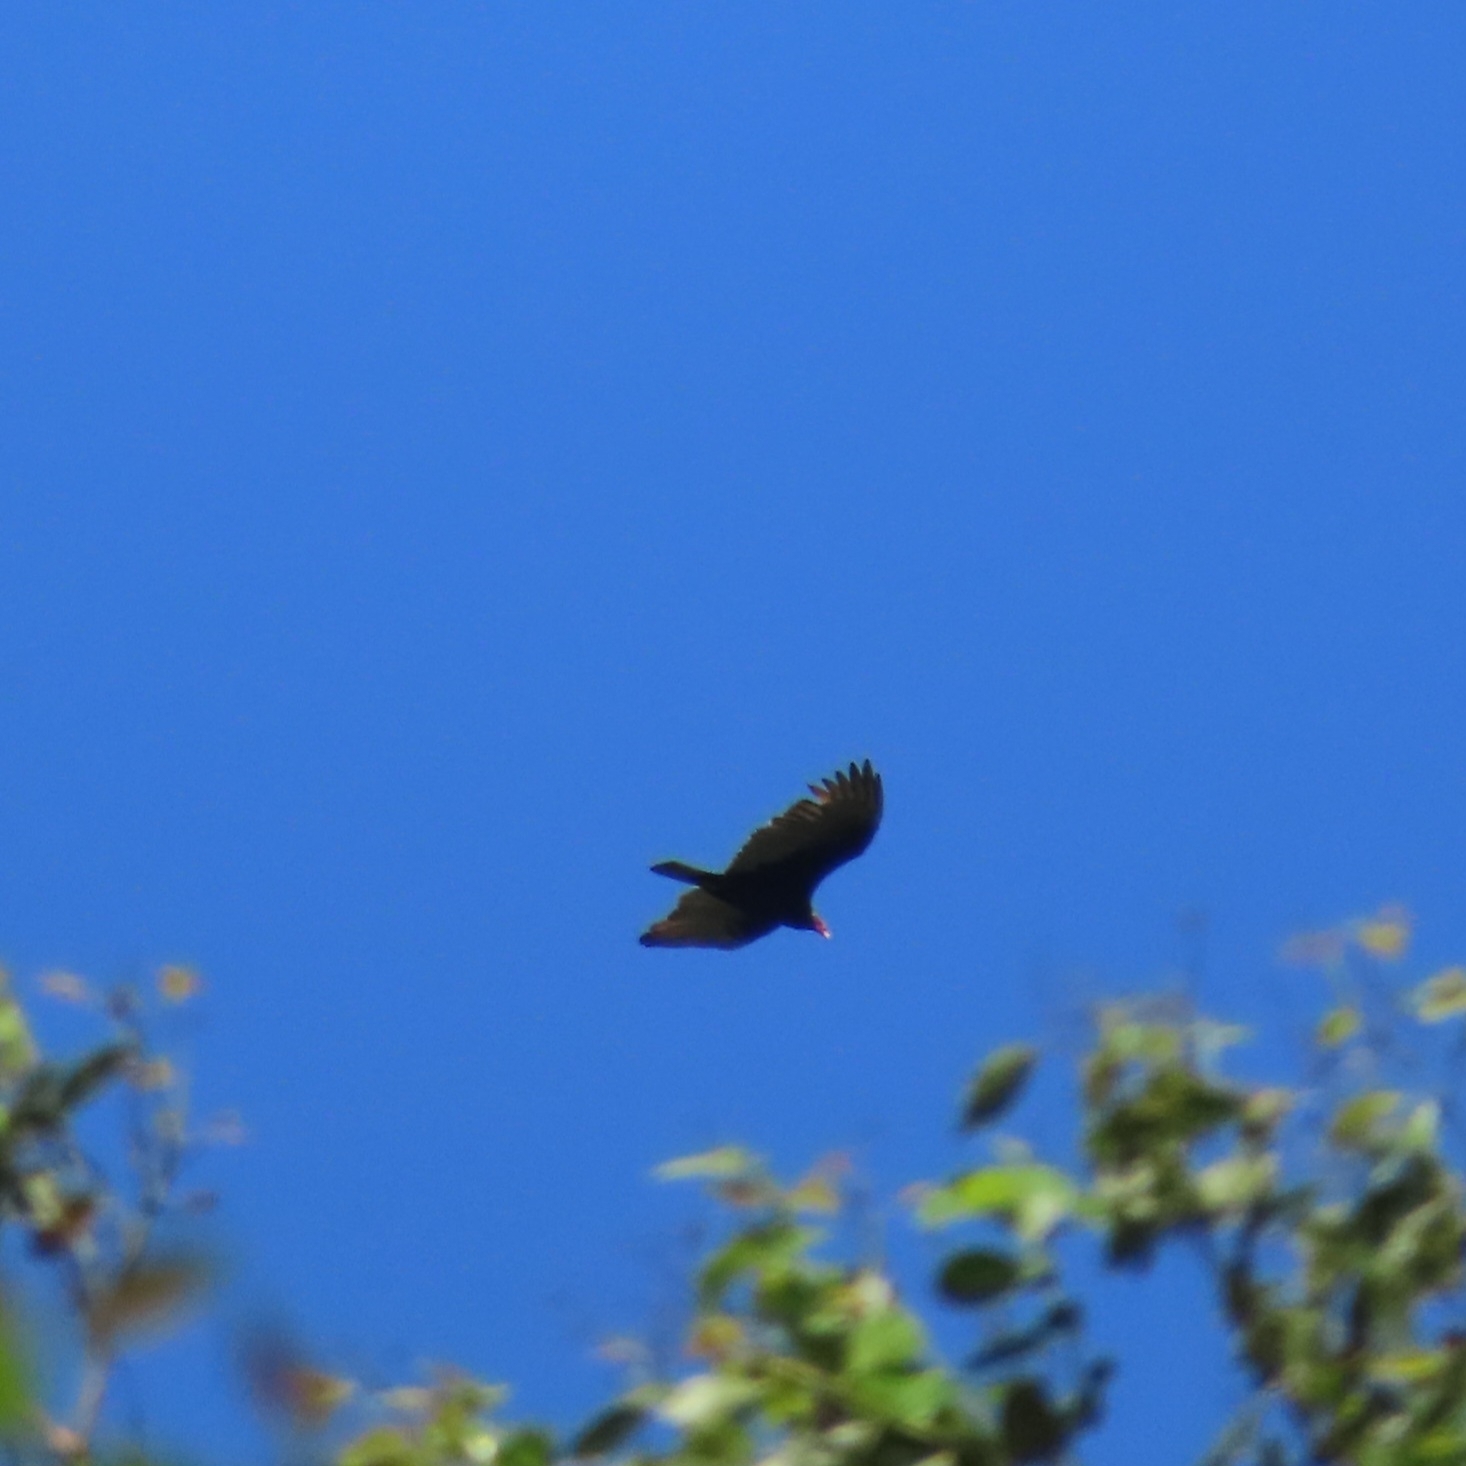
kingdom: Animalia
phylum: Chordata
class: Aves
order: Accipitriformes
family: Cathartidae
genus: Cathartes
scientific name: Cathartes aura
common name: Turkey vulture
